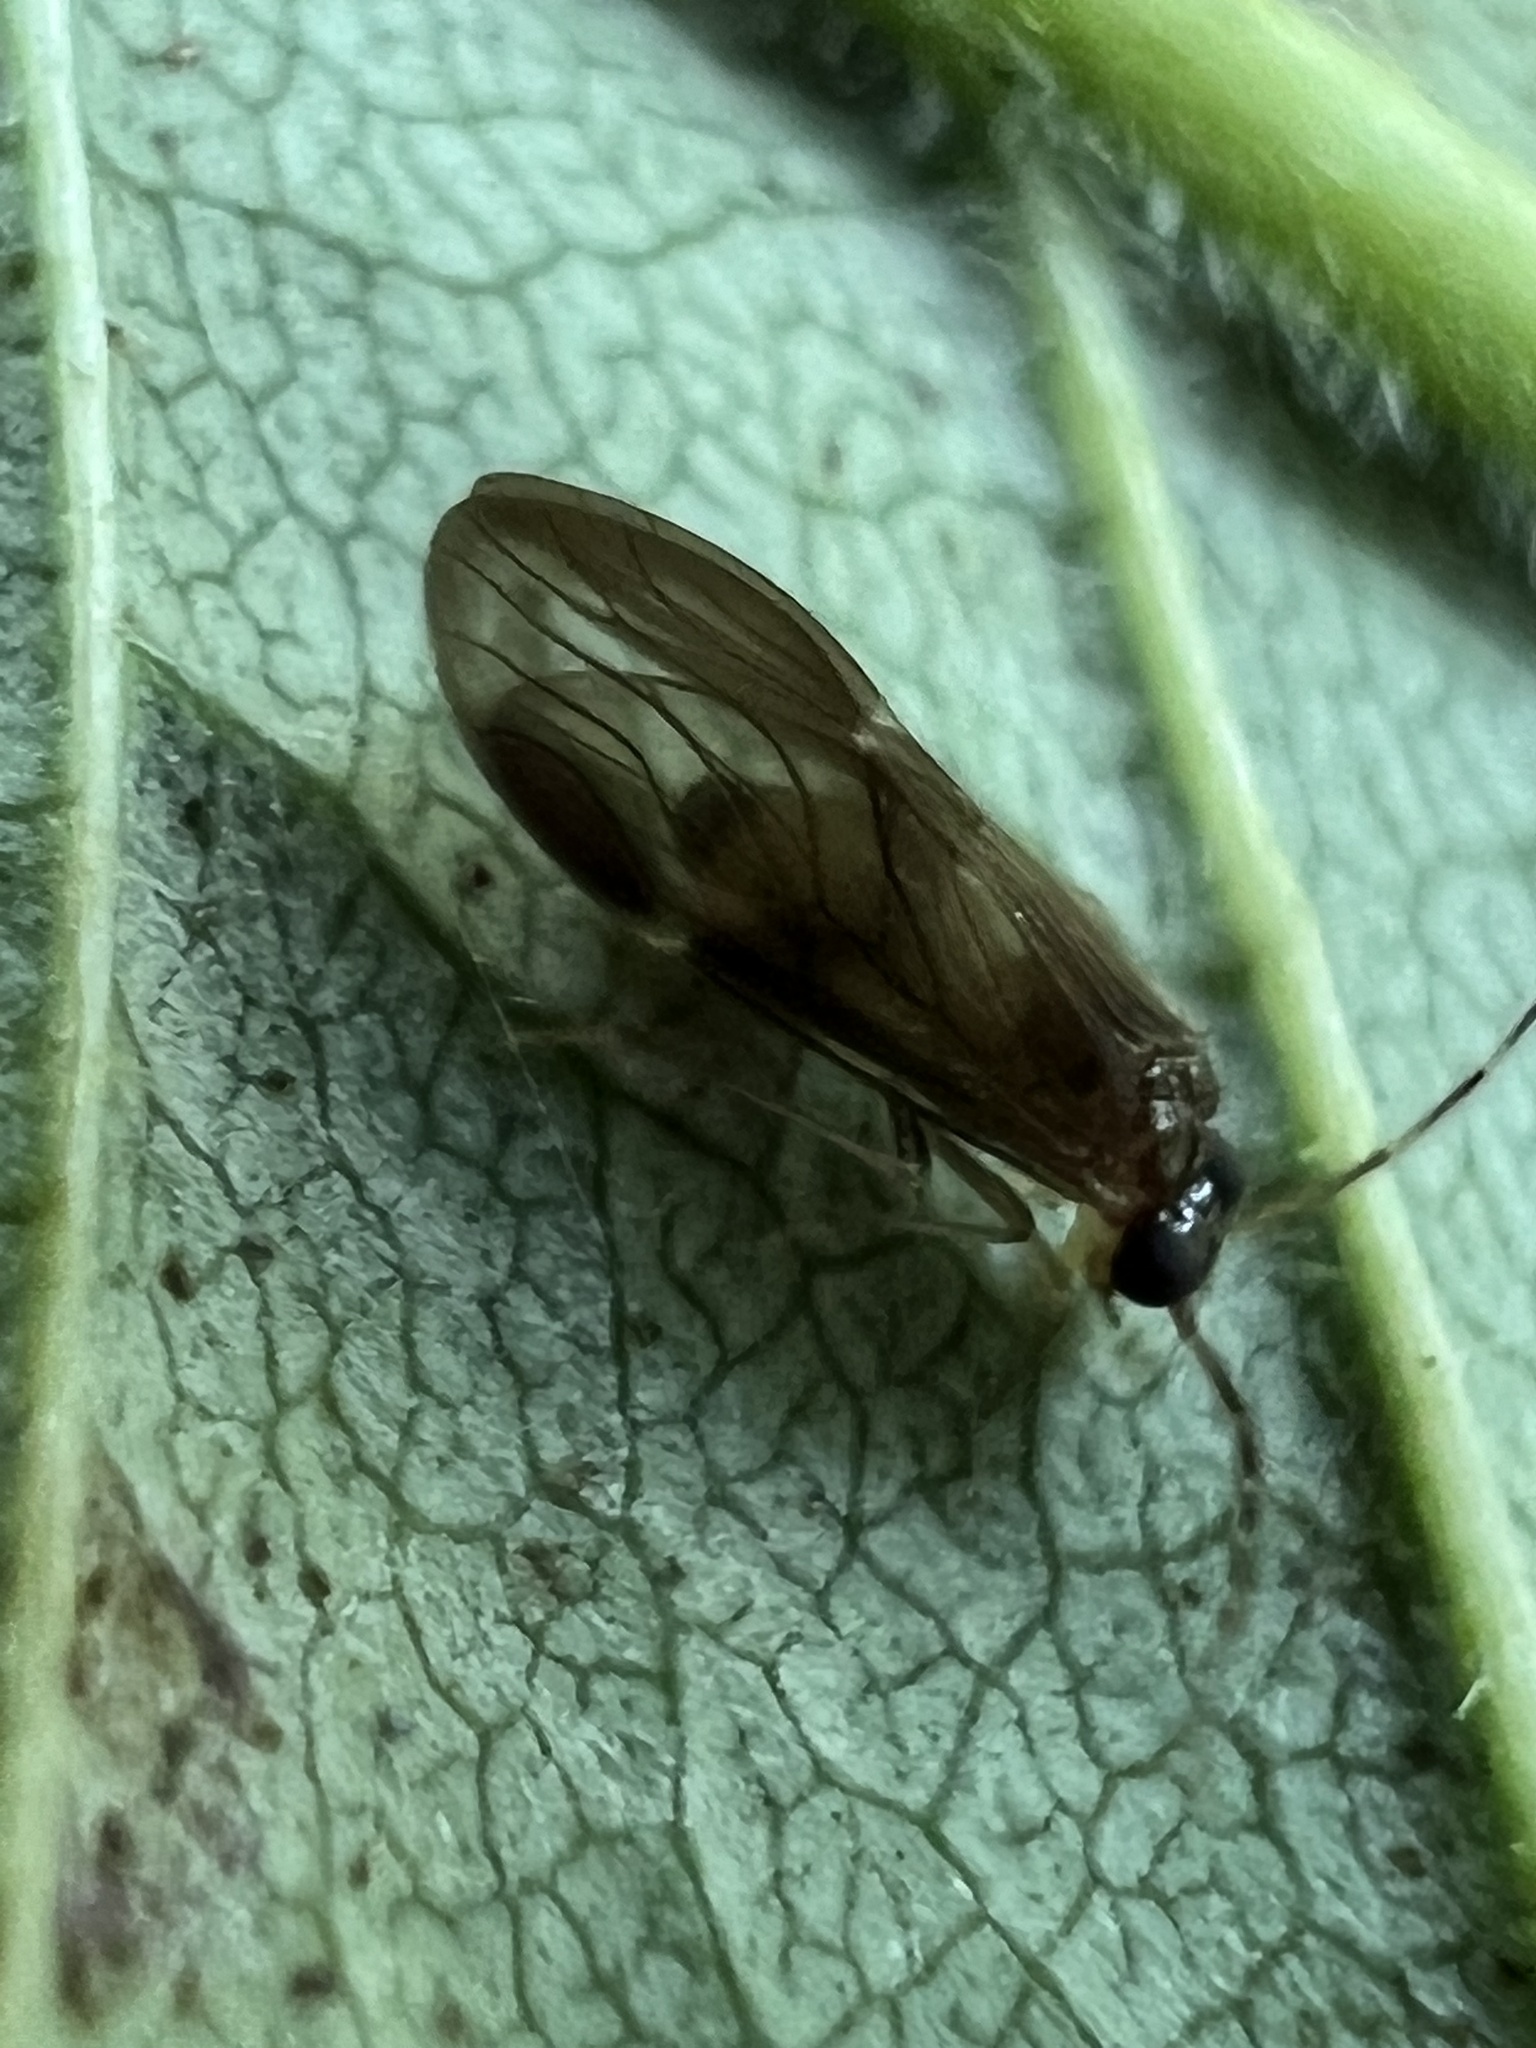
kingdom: Animalia
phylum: Arthropoda
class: Insecta
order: Psocodea
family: Amphipsocidae
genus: Polypsocus
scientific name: Polypsocus corruptus
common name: Corrupt barklouse
